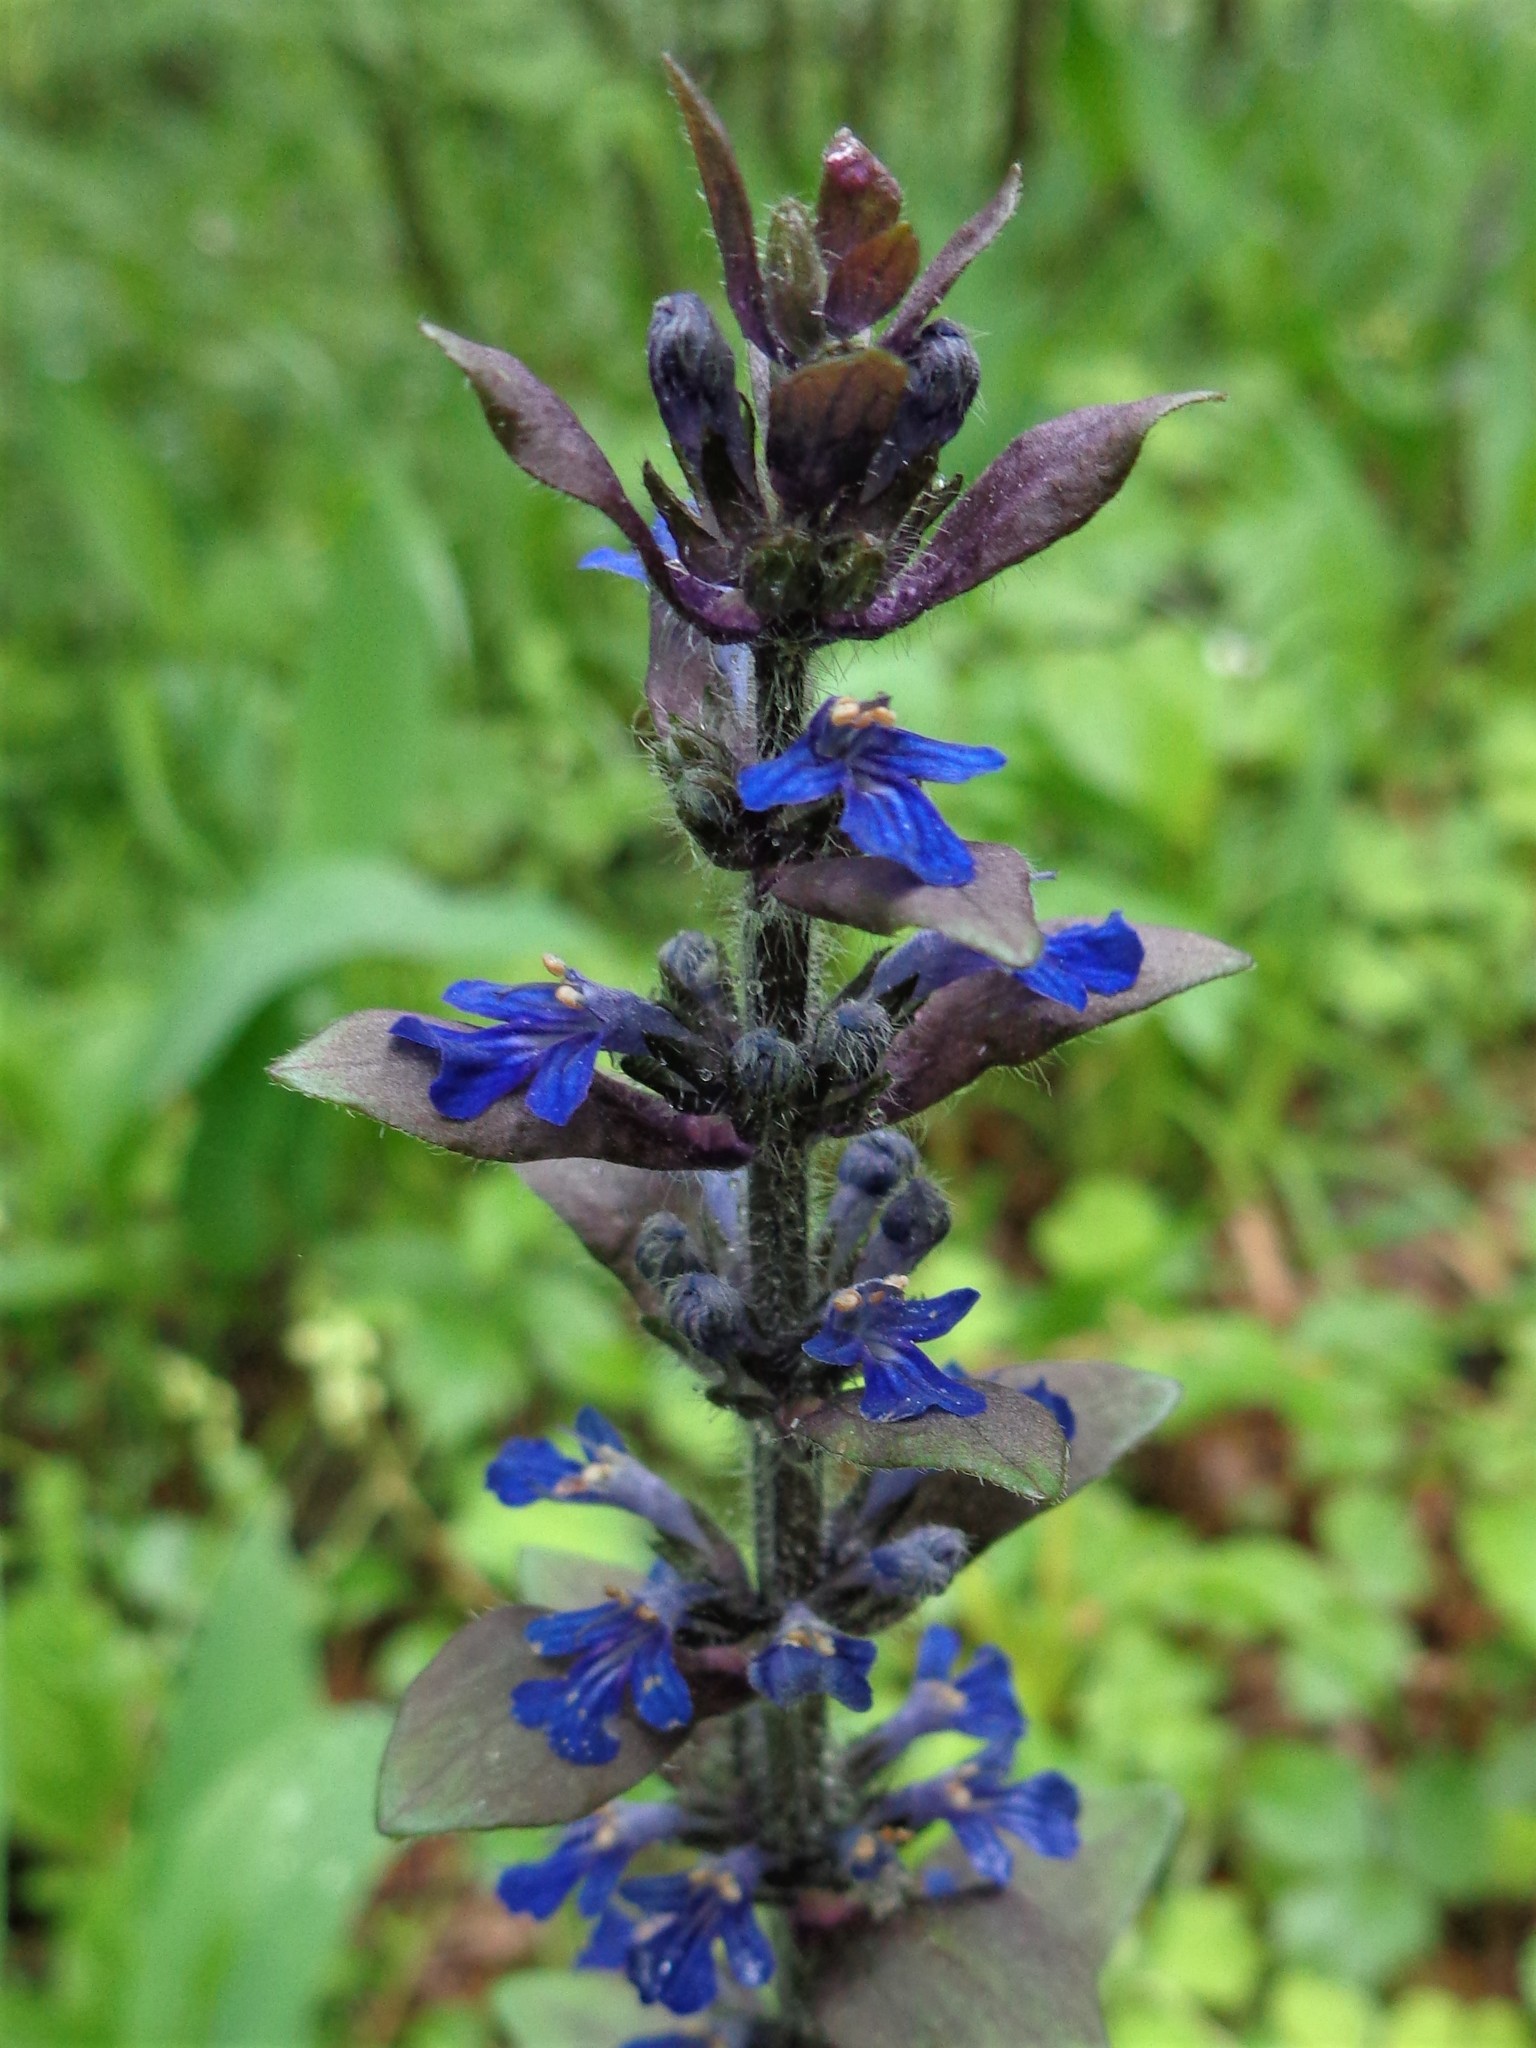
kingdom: Plantae
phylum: Tracheophyta
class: Magnoliopsida
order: Lamiales
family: Lamiaceae
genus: Ajuga
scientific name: Ajuga reptans
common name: Bugle
